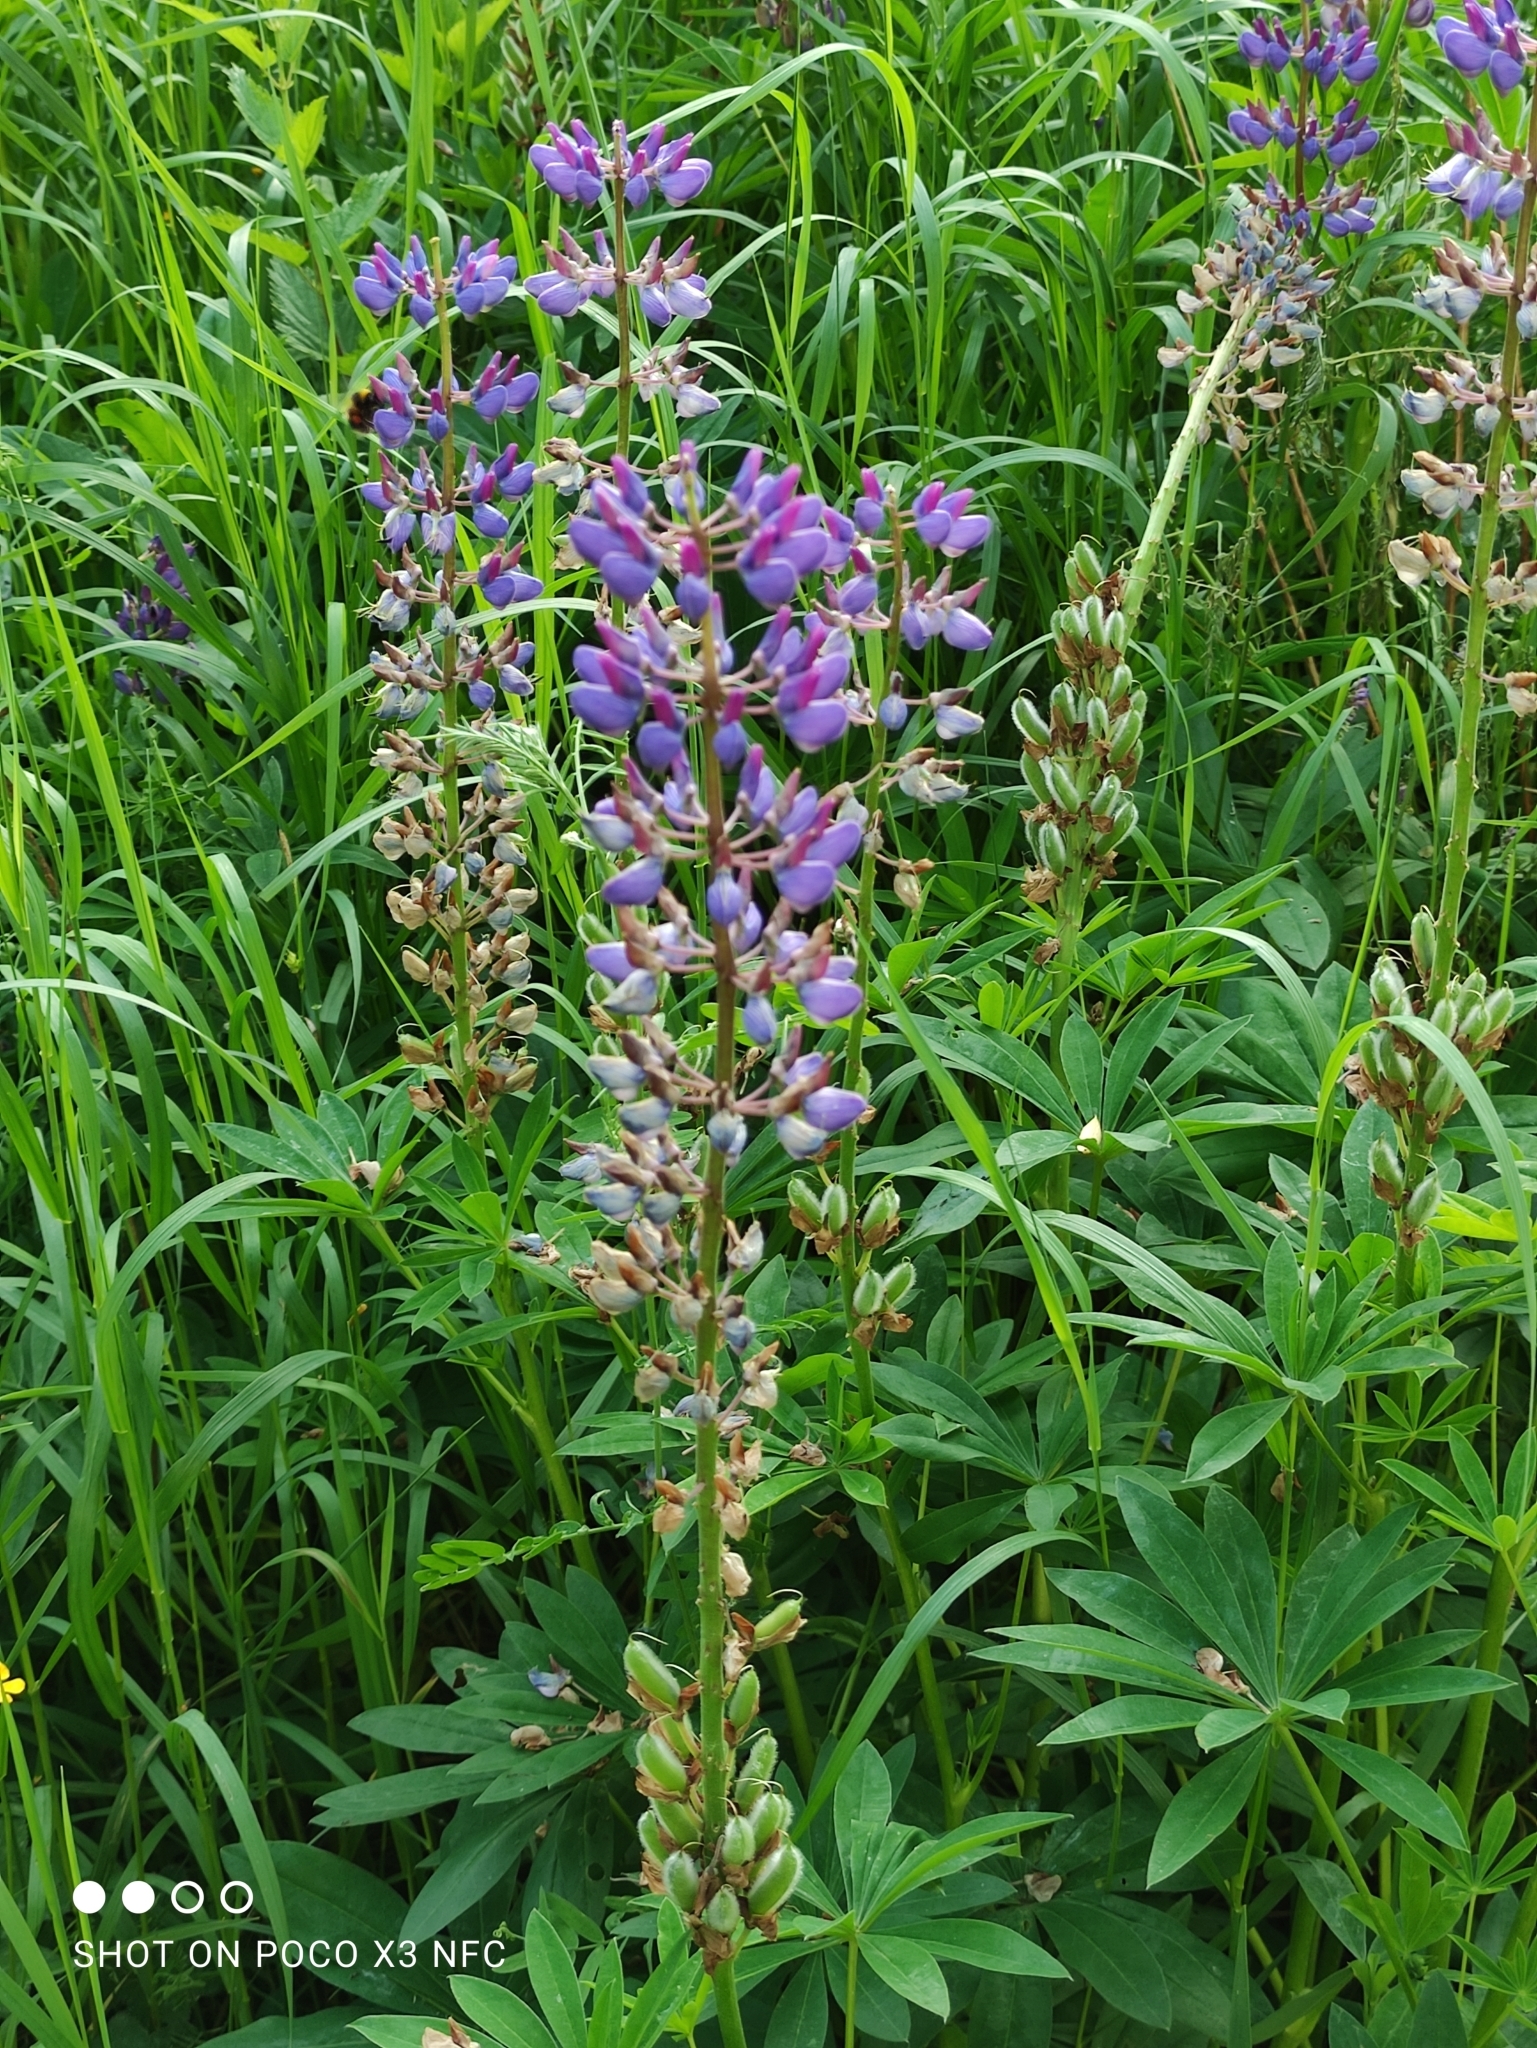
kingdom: Plantae
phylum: Tracheophyta
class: Magnoliopsida
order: Fabales
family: Fabaceae
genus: Lupinus
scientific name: Lupinus polyphyllus
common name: Garden lupin
